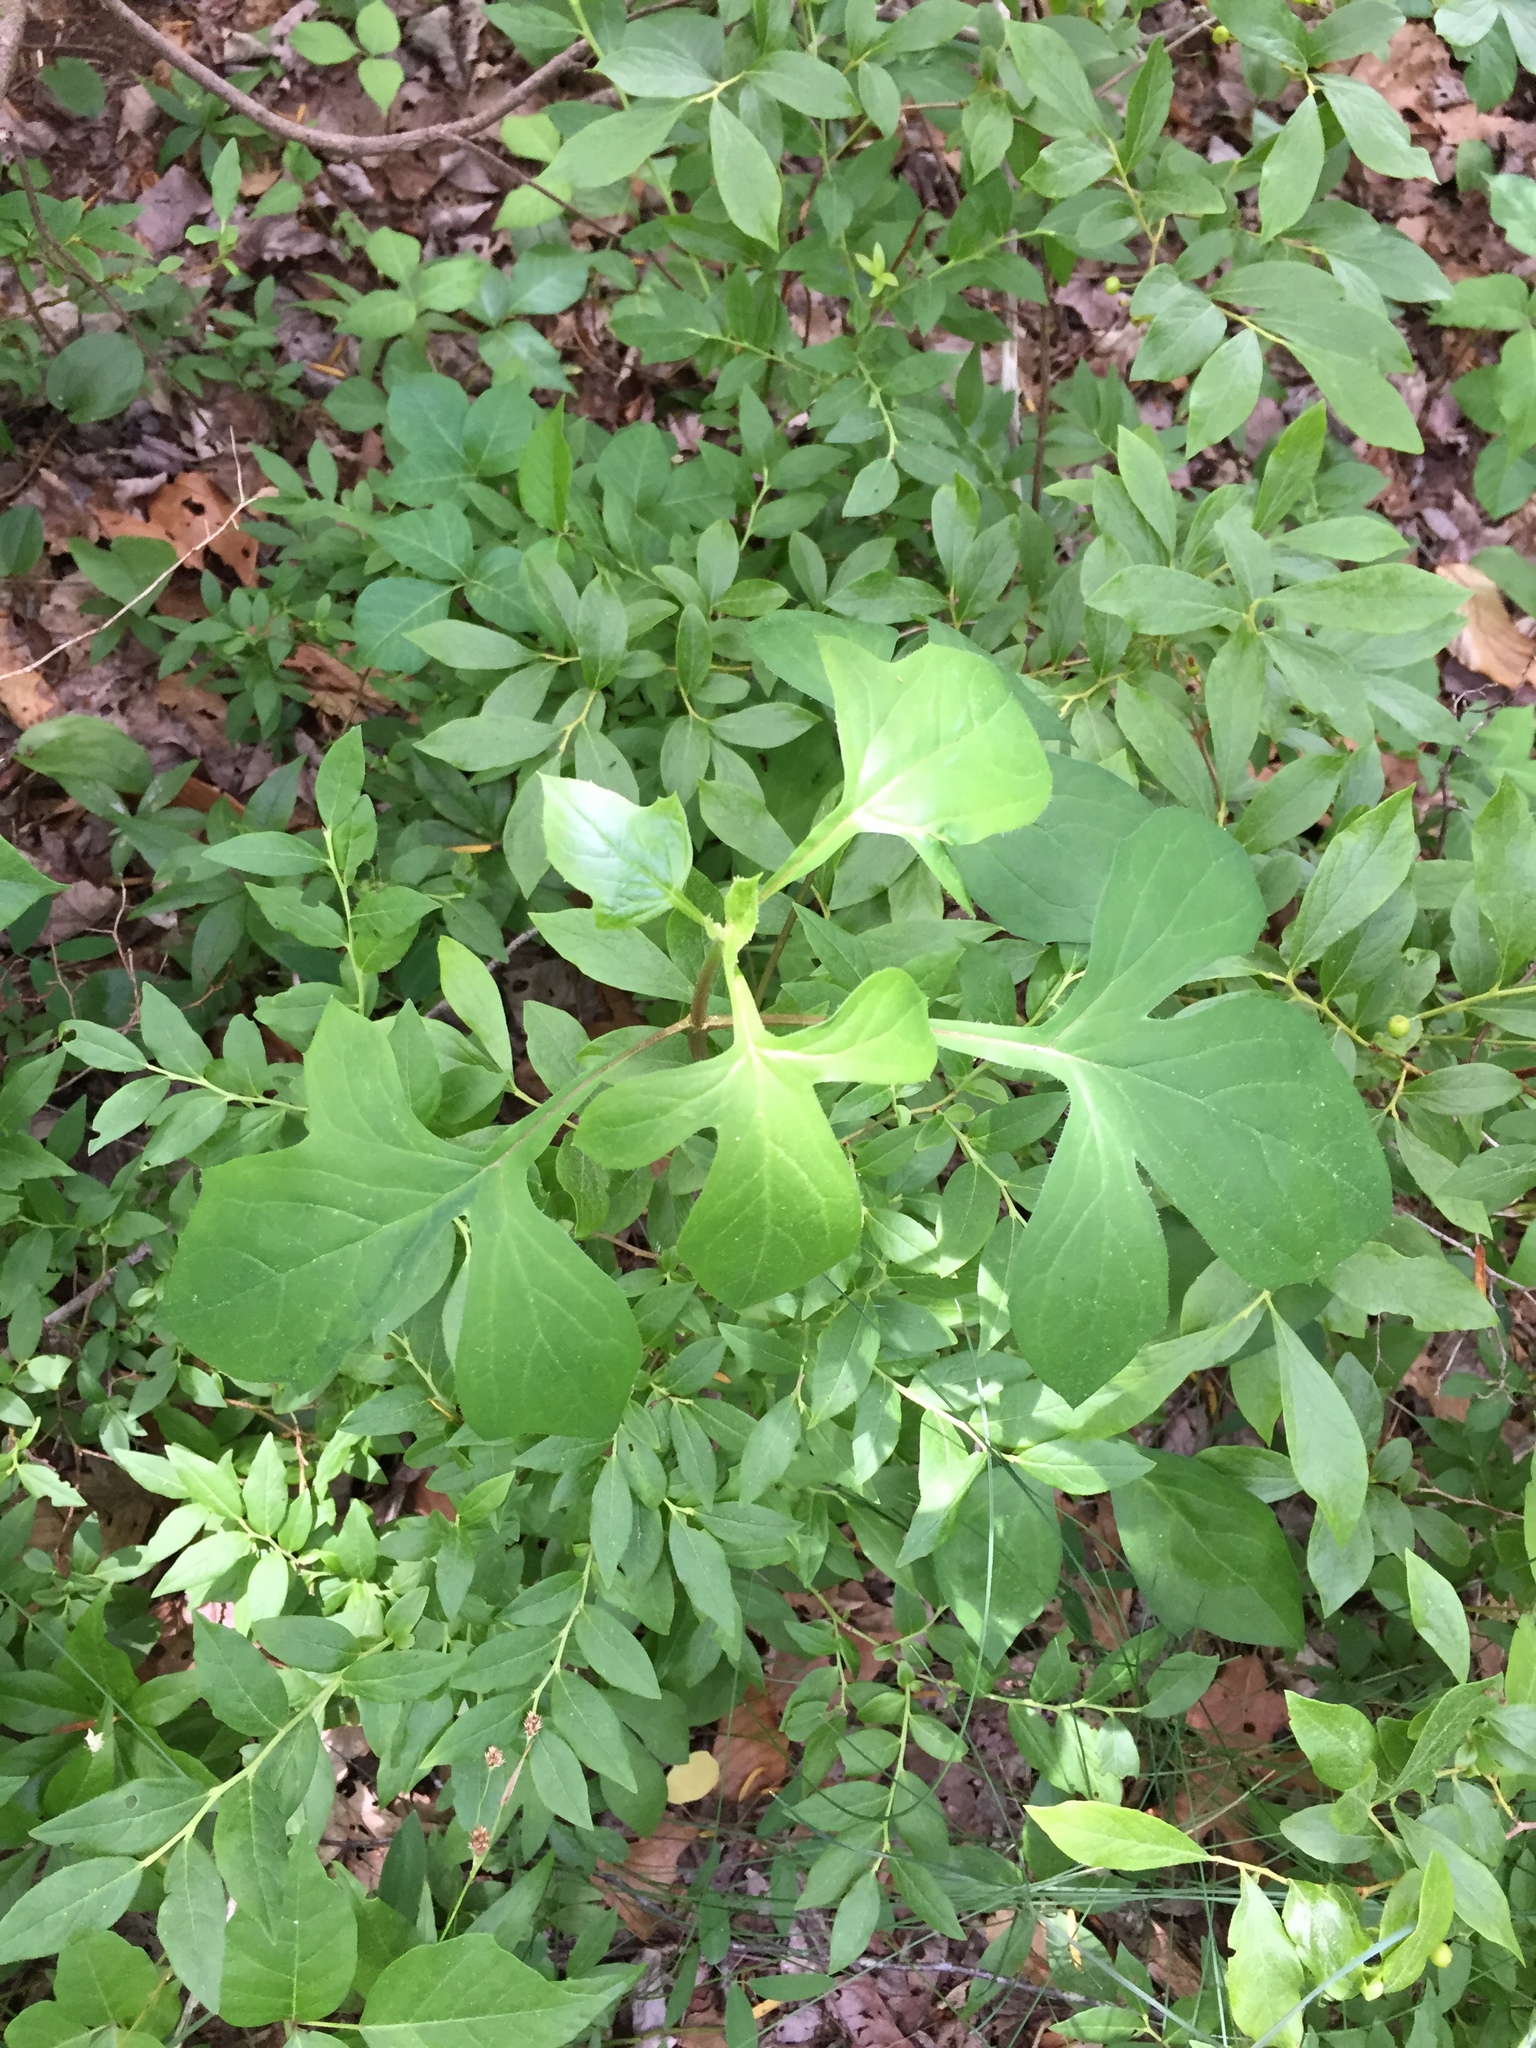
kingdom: Plantae
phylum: Tracheophyta
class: Magnoliopsida
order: Asterales
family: Asteraceae
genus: Nabalus
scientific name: Nabalus trifoliolatus
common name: Gall-of-the-earth
